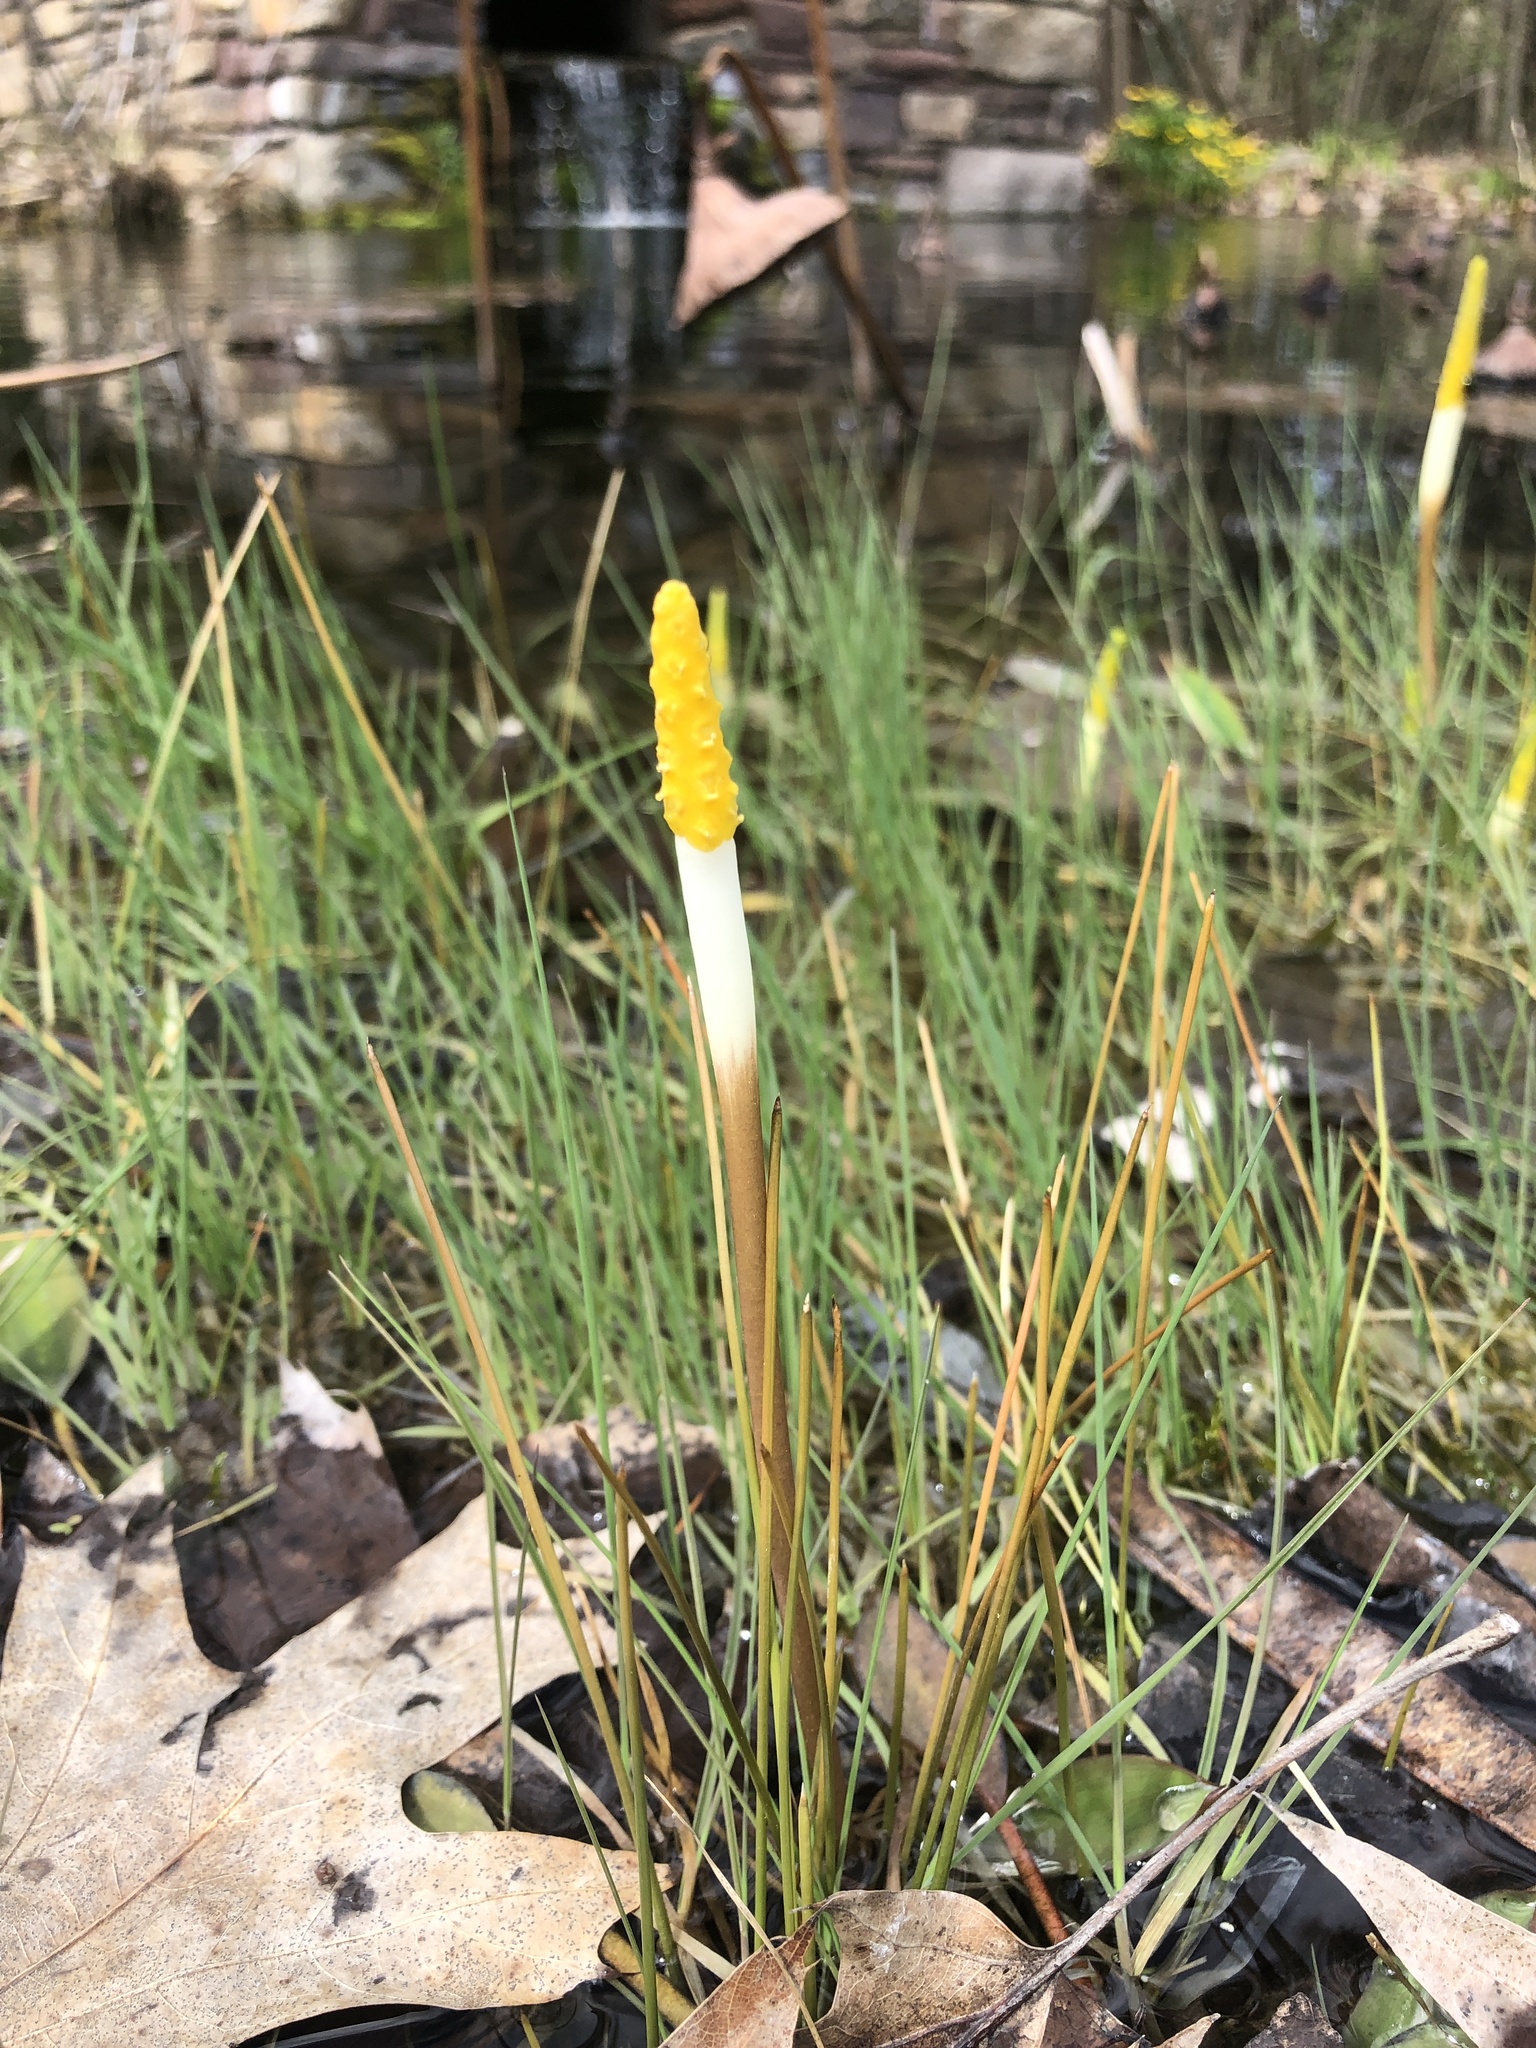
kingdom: Plantae
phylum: Tracheophyta
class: Liliopsida
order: Alismatales
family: Araceae
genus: Orontium
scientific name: Orontium aquaticum
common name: Golden-club
